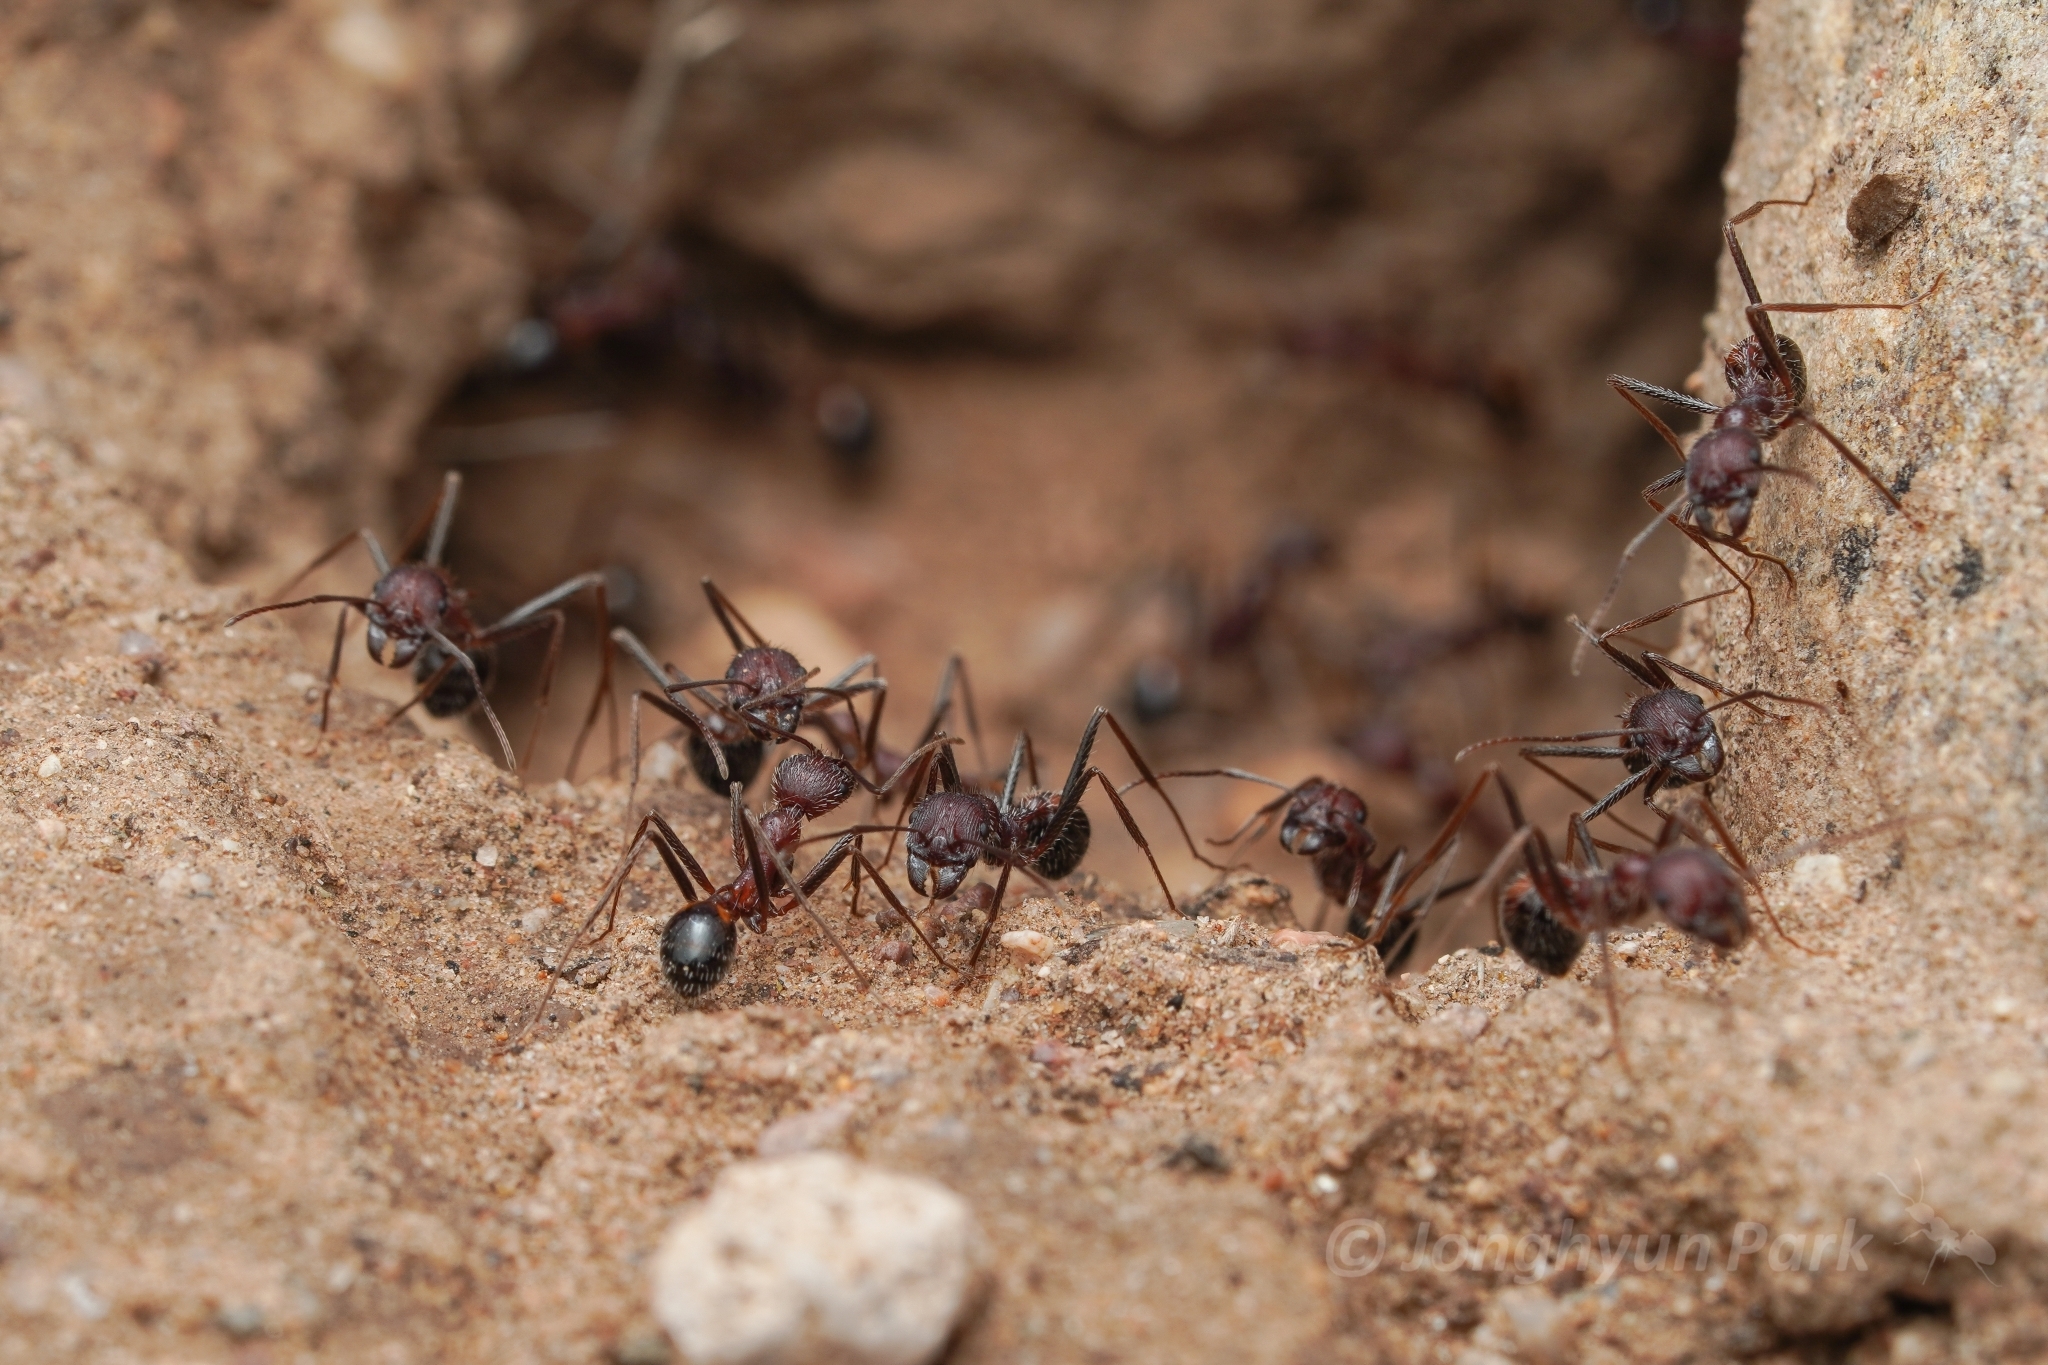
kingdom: Animalia
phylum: Arthropoda
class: Insecta
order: Hymenoptera
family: Formicidae
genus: Novomessor
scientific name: Novomessor albisetosa
